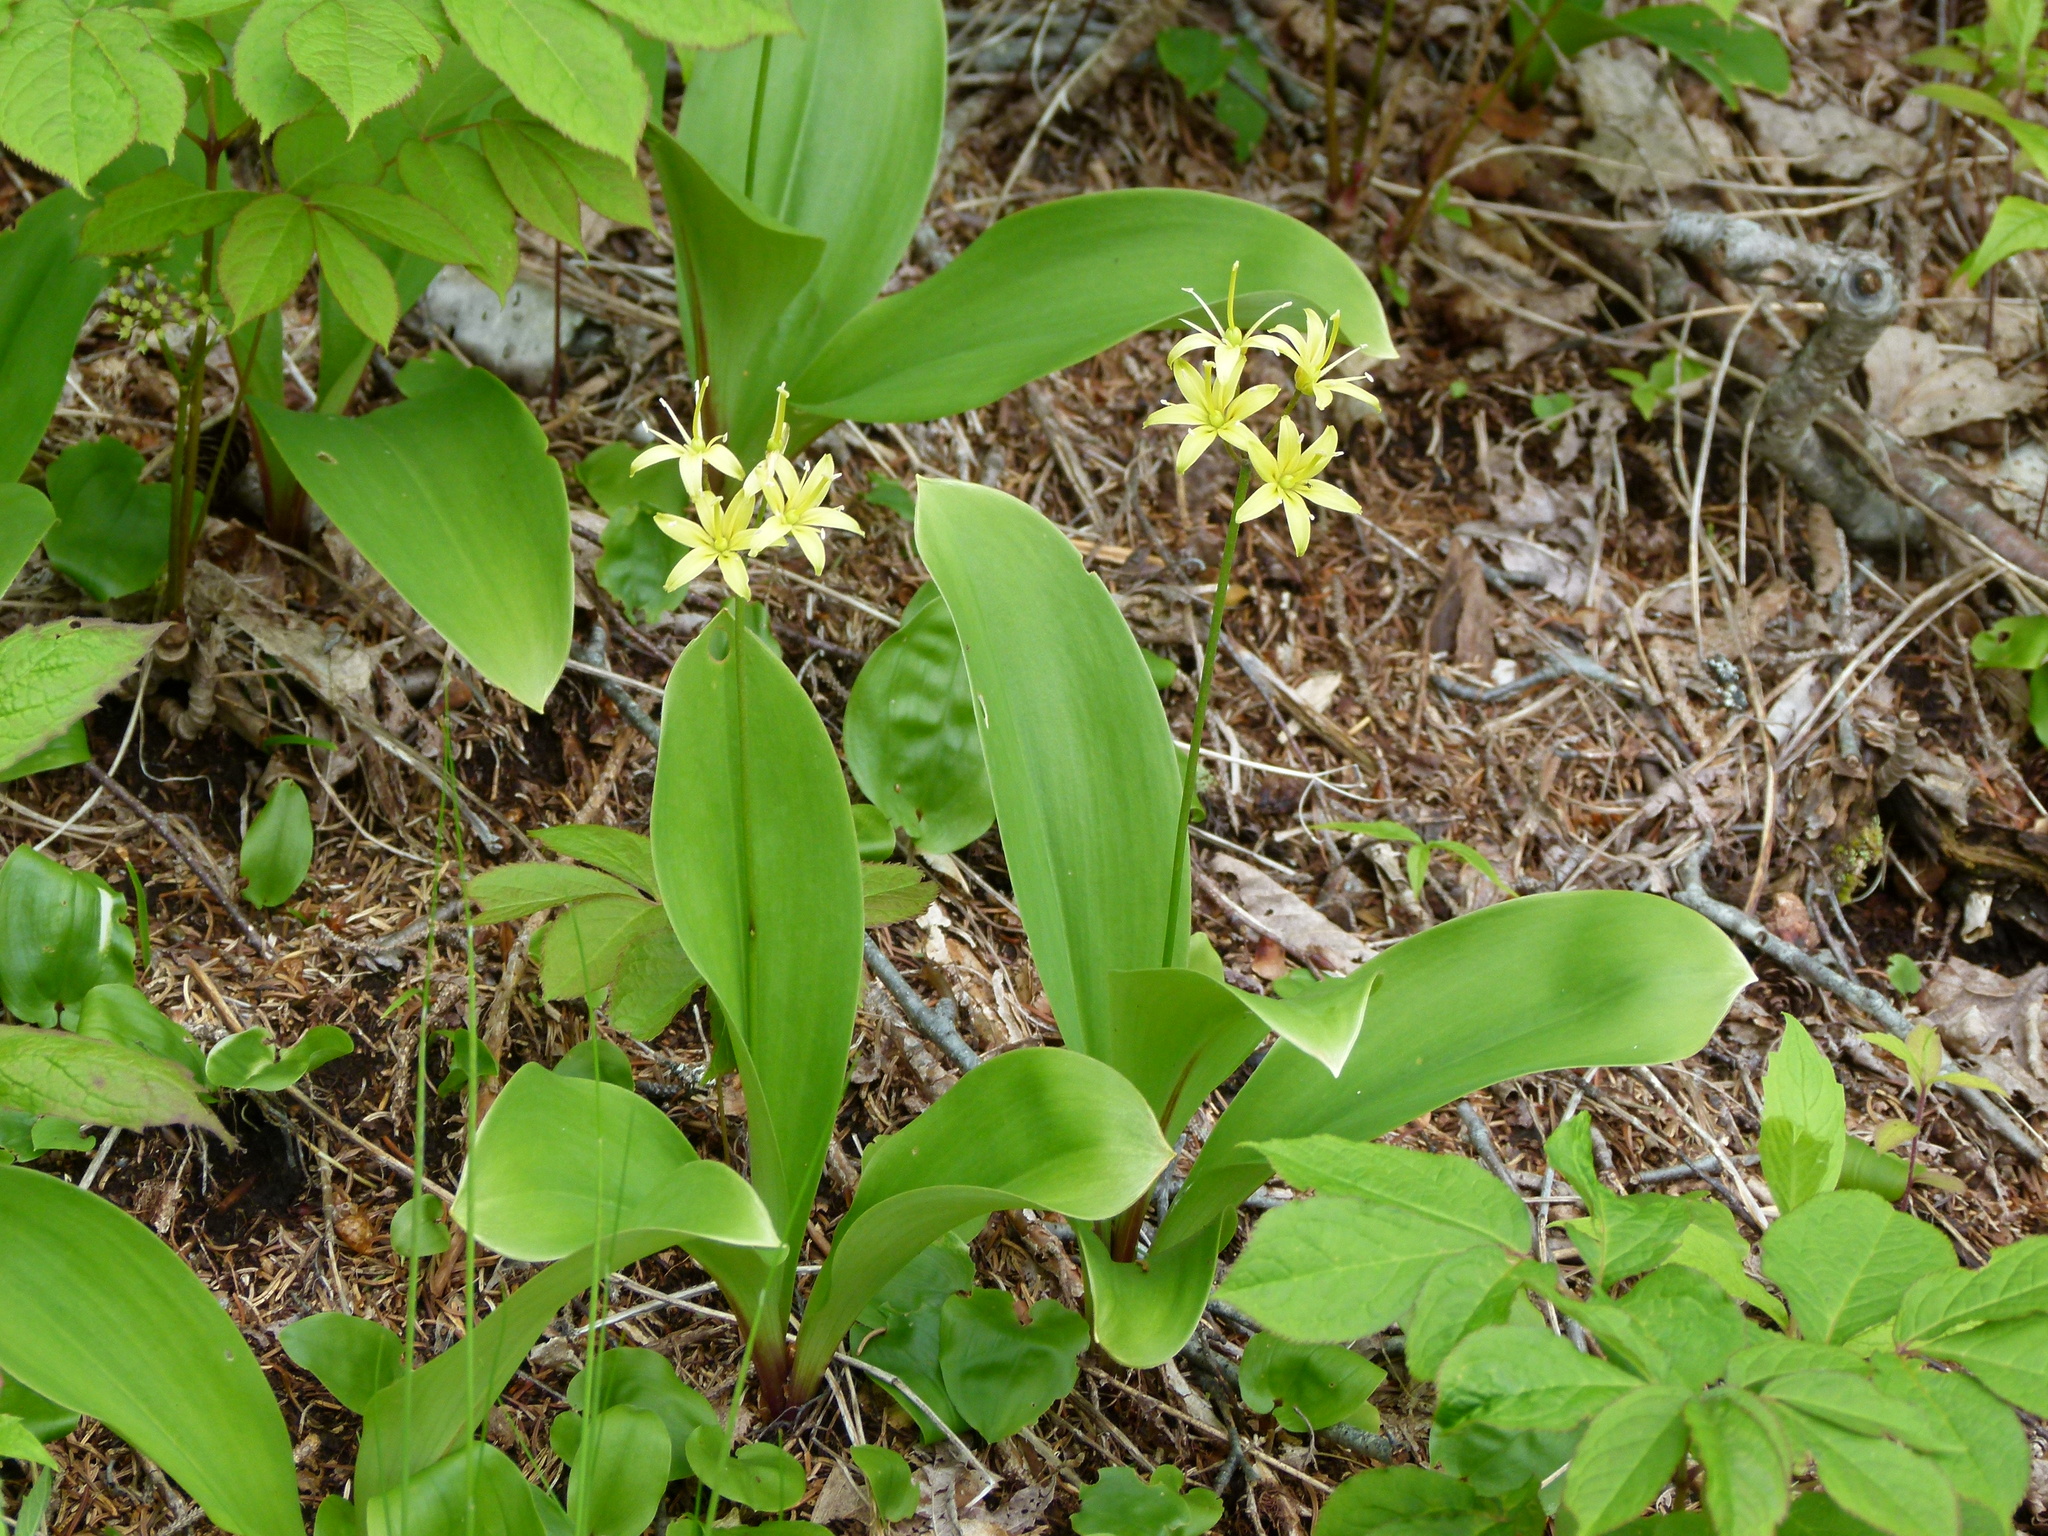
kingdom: Plantae
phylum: Tracheophyta
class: Liliopsida
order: Liliales
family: Liliaceae
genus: Clintonia
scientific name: Clintonia borealis
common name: Yellow clintonia
